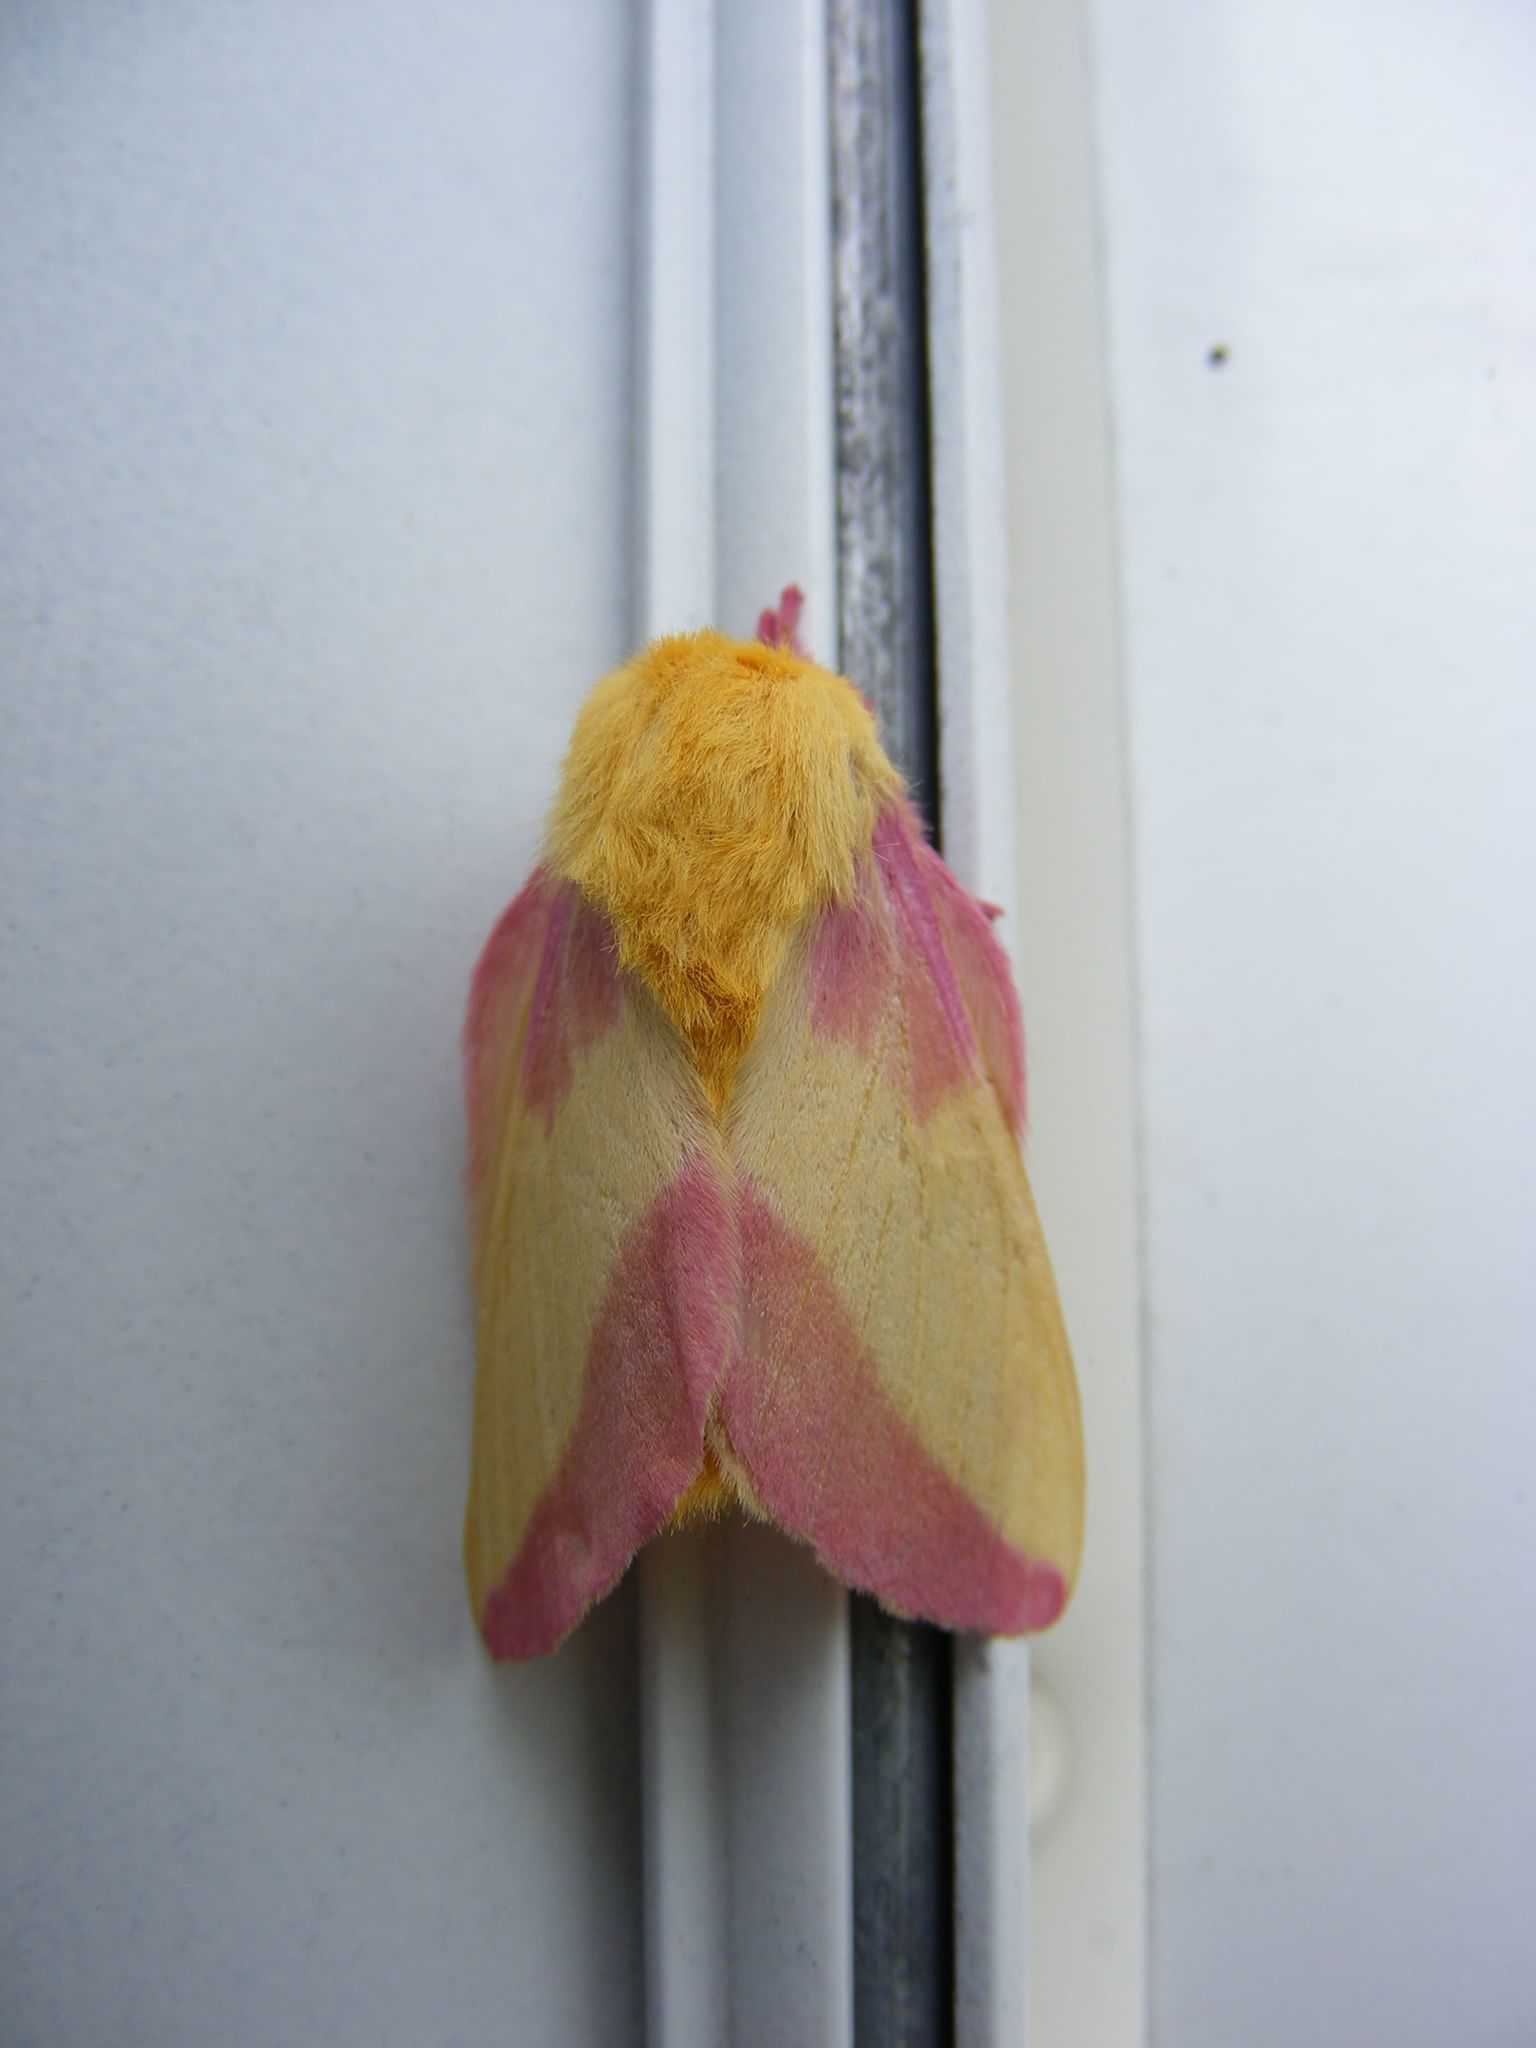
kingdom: Animalia
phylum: Arthropoda
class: Insecta
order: Lepidoptera
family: Saturniidae
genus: Dryocampa
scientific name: Dryocampa rubicunda
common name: Rosy maple moth
